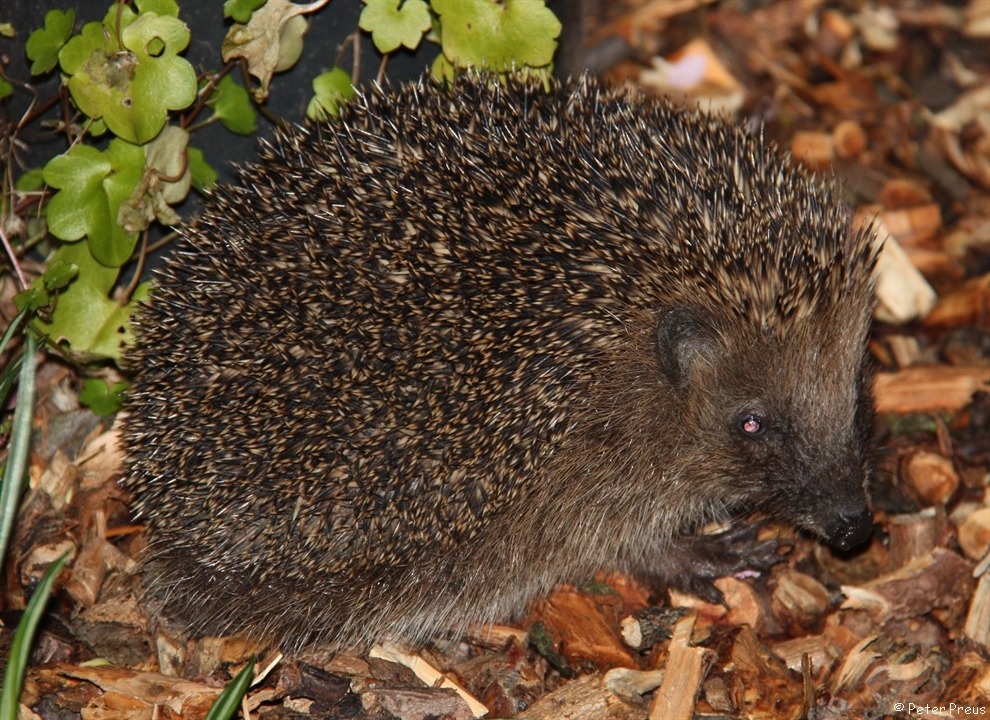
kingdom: Animalia
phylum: Chordata
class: Mammalia
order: Erinaceomorpha
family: Erinaceidae
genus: Erinaceus
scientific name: Erinaceus europaeus
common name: West european hedgehog
